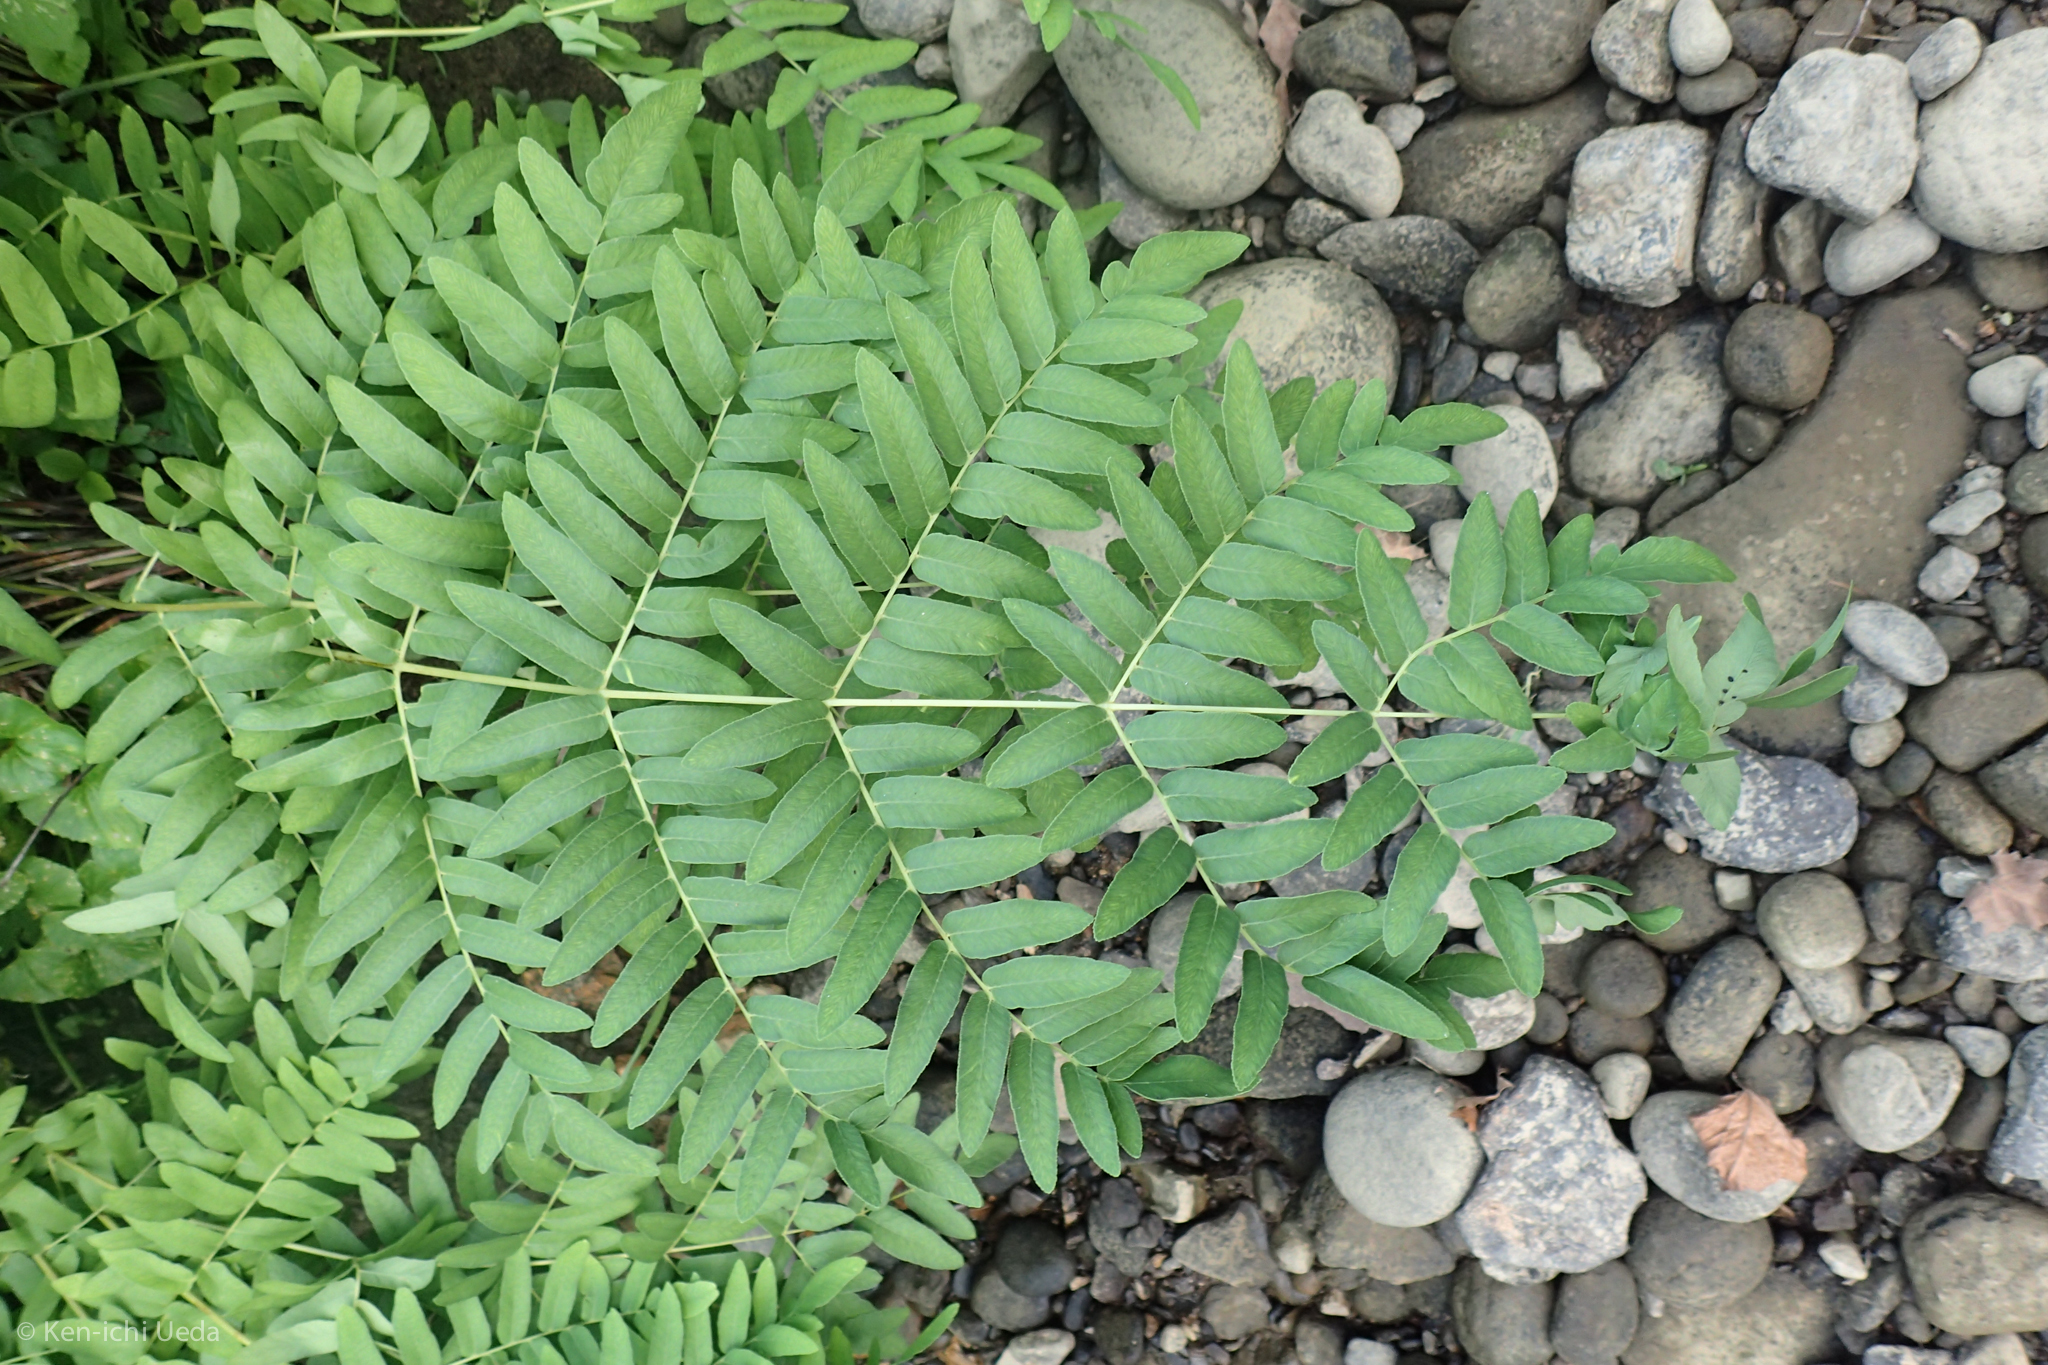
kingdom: Plantae
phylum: Tracheophyta
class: Polypodiopsida
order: Osmundales
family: Osmundaceae
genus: Osmunda
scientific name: Osmunda spectabilis
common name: American royal fern
